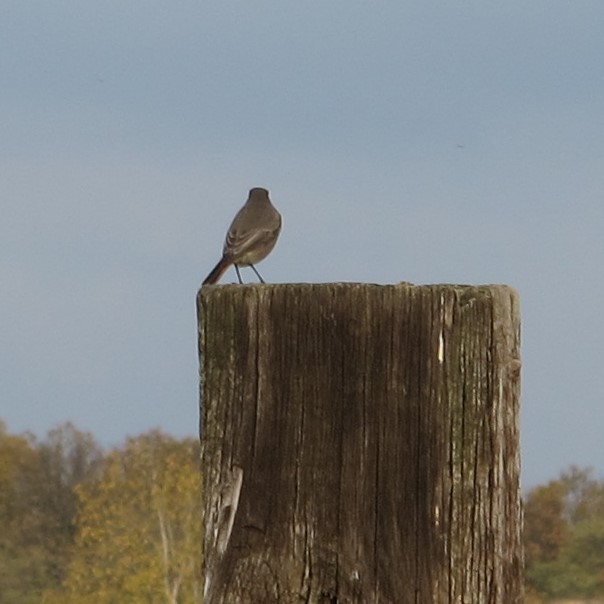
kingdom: Animalia
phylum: Chordata
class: Aves
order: Passeriformes
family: Muscicapidae
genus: Phoenicurus
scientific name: Phoenicurus ochruros
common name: Black redstart
